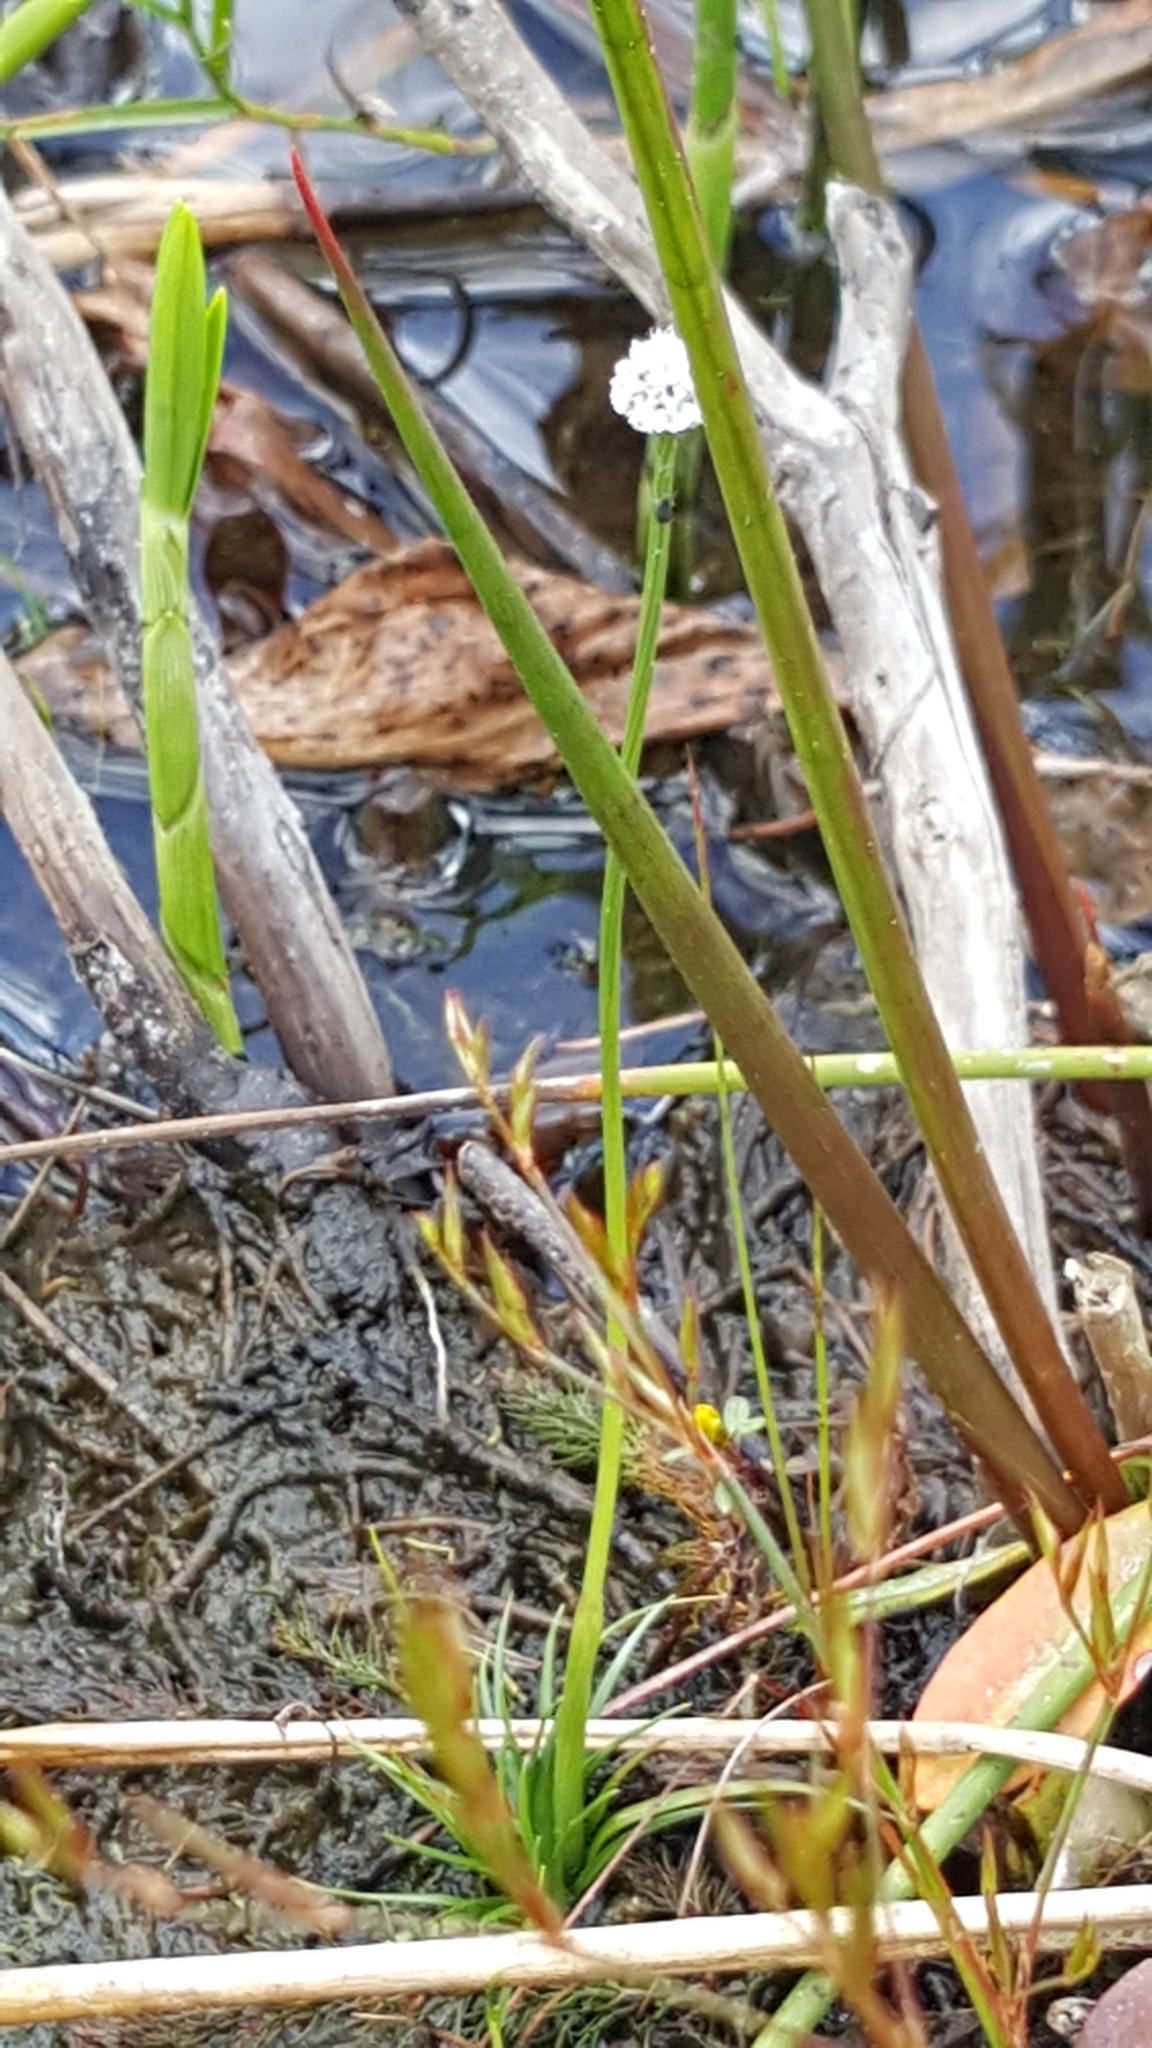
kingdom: Plantae
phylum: Tracheophyta
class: Liliopsida
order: Poales
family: Eriocaulaceae
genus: Eriocaulon
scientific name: Eriocaulon aquaticum
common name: Pipewort
